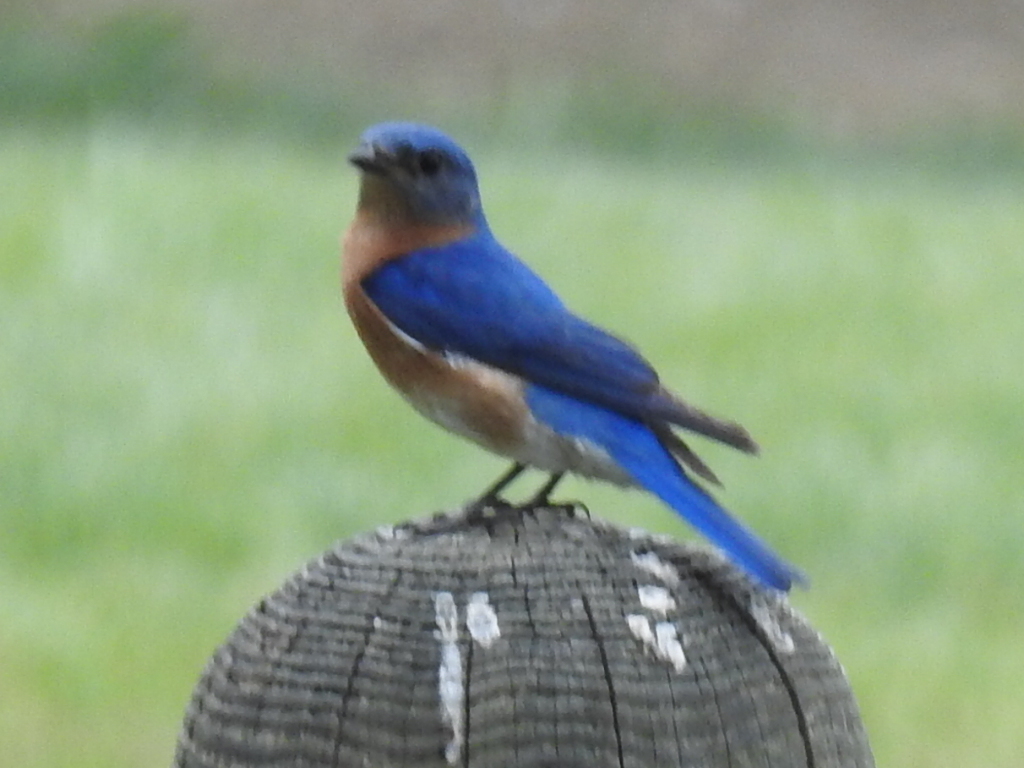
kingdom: Animalia
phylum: Chordata
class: Aves
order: Passeriformes
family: Turdidae
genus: Sialia
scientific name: Sialia sialis
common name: Eastern bluebird
